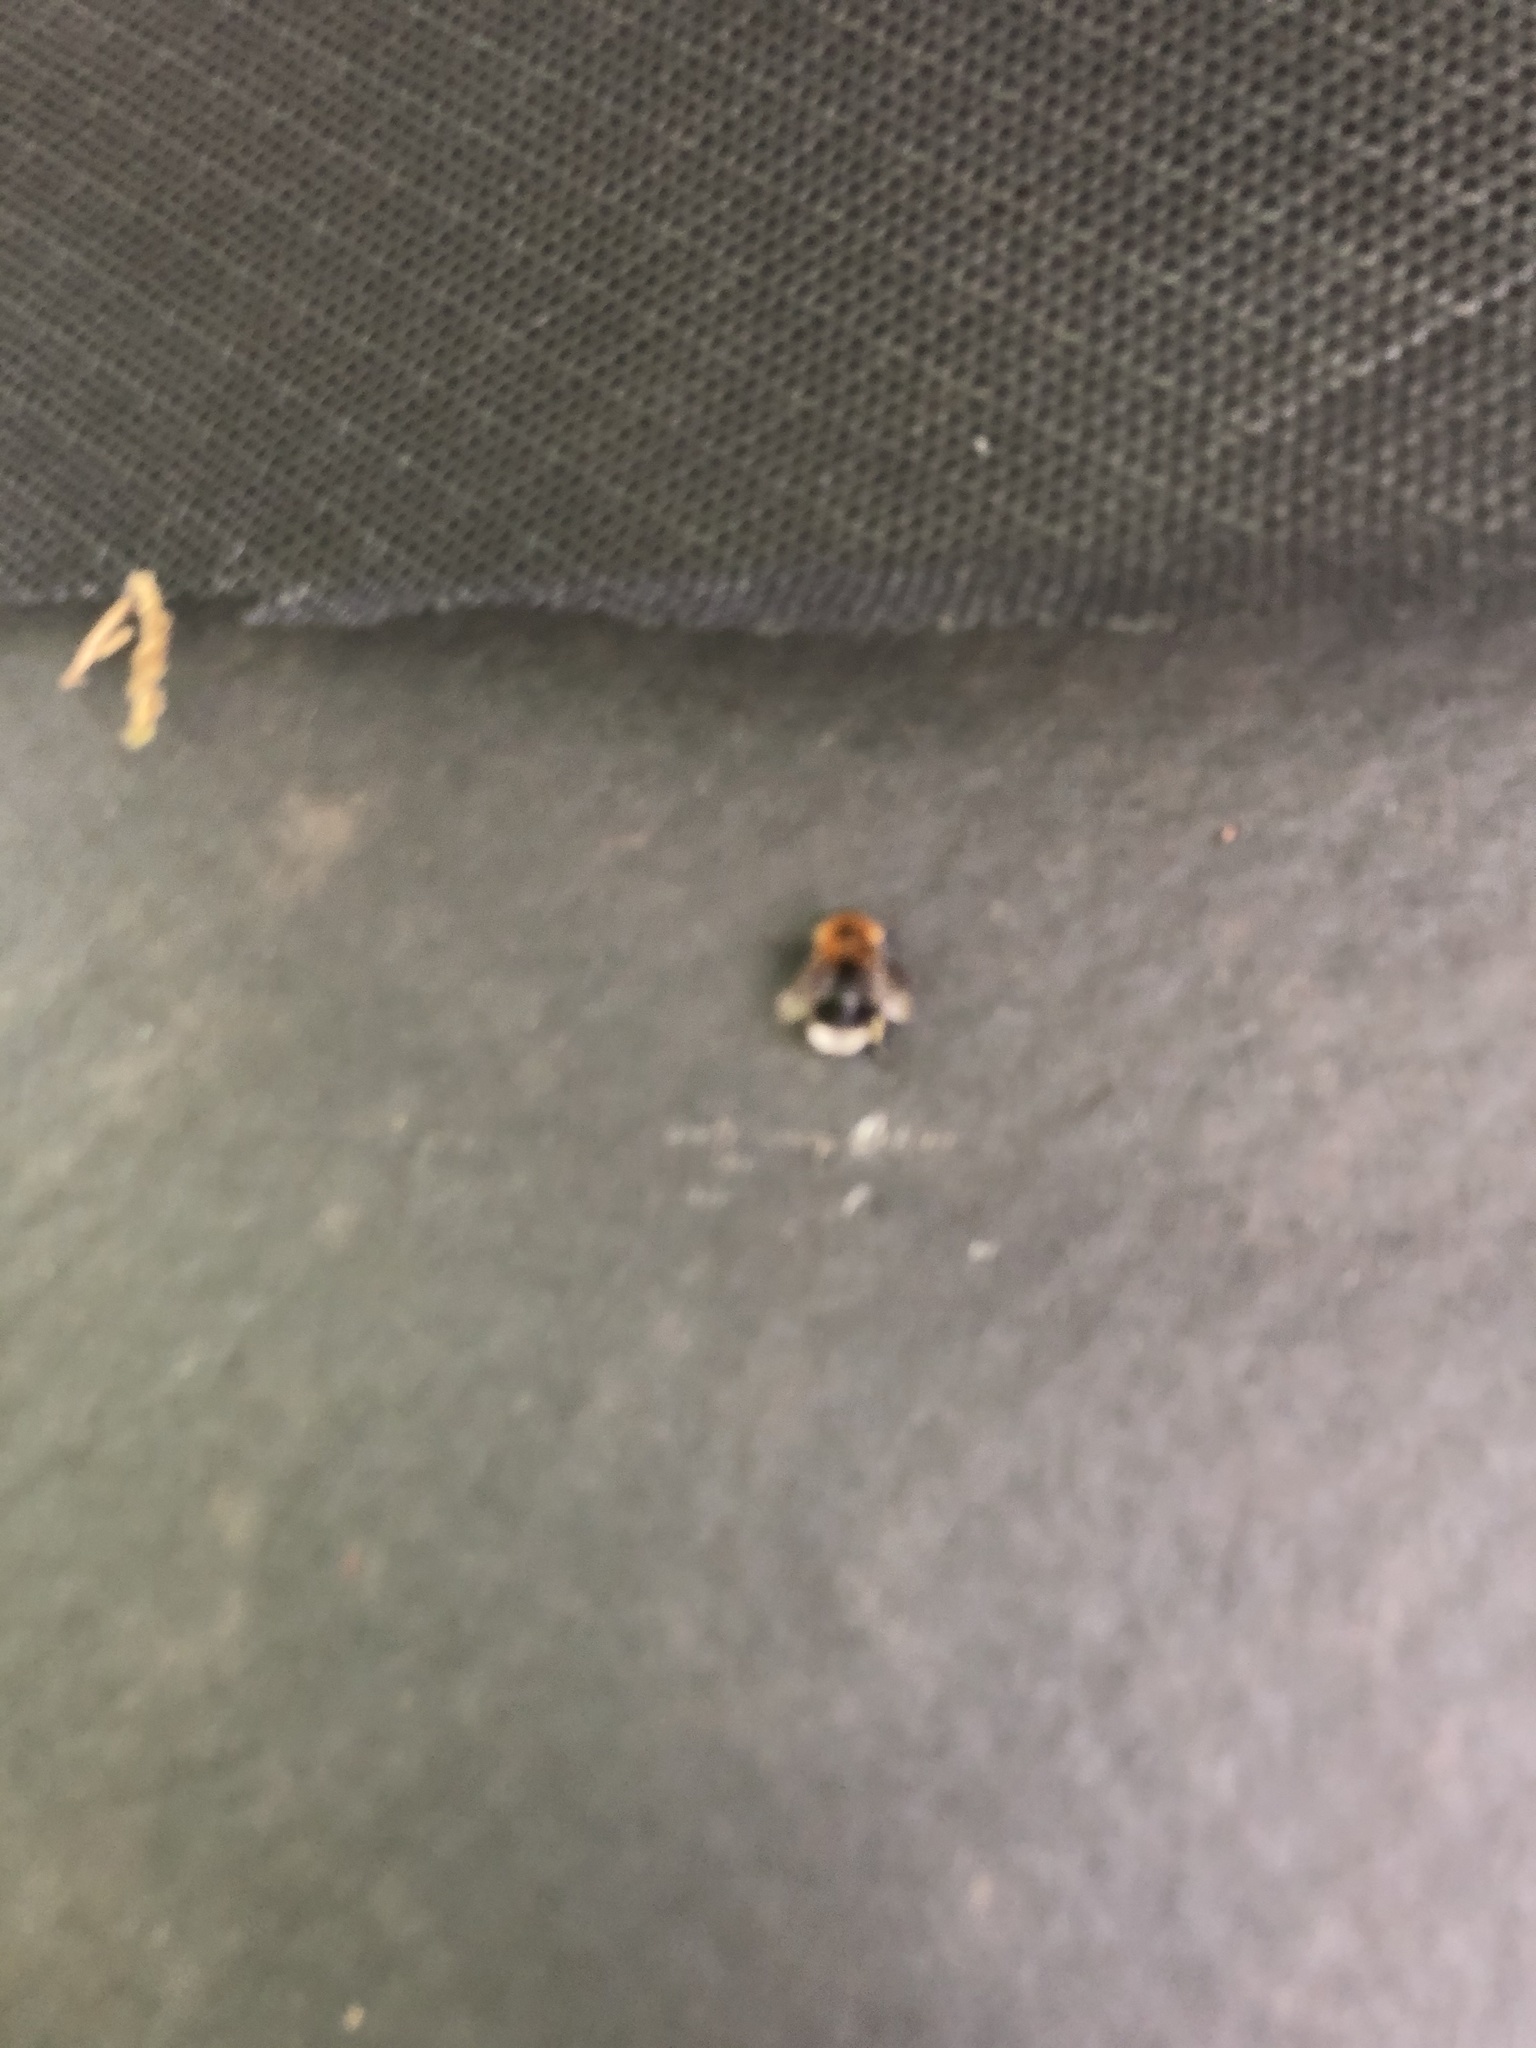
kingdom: Animalia
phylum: Arthropoda
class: Insecta
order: Hymenoptera
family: Apidae
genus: Bombus
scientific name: Bombus hypnorum
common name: New garden bumblebee
